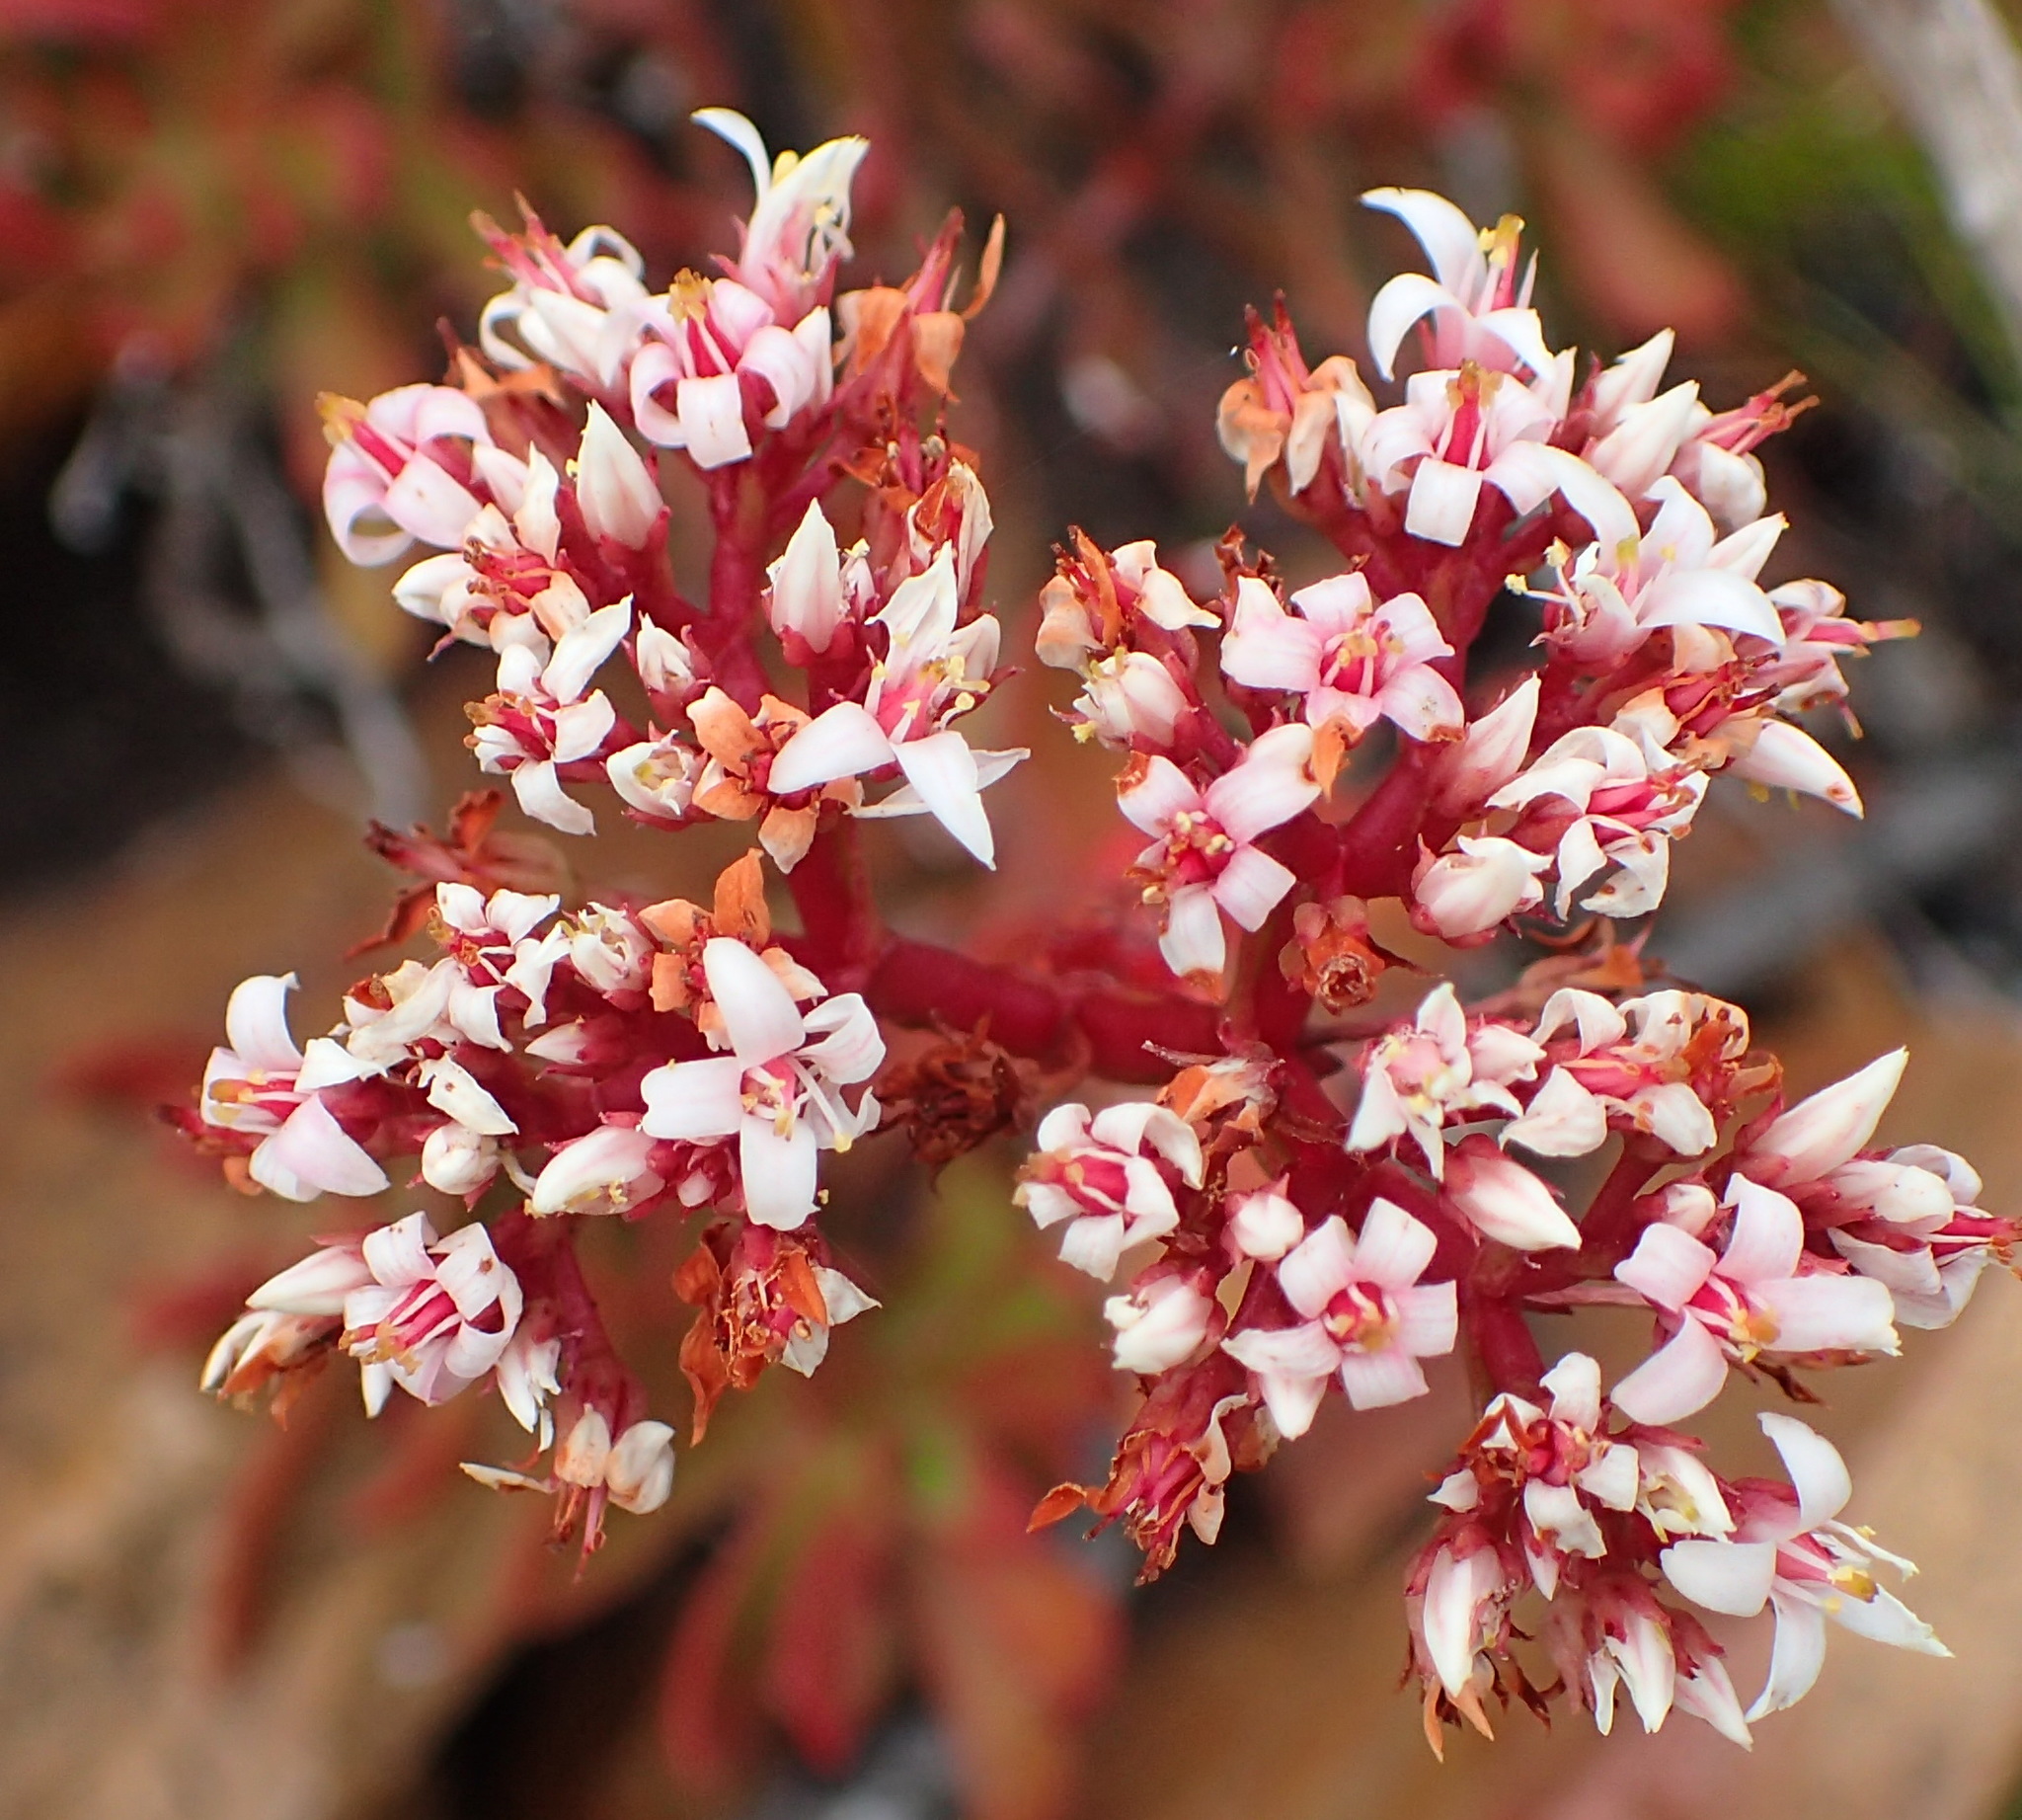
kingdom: Plantae
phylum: Tracheophyta
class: Magnoliopsida
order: Saxifragales
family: Crassulaceae
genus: Crassula
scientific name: Crassula rubricaulis
